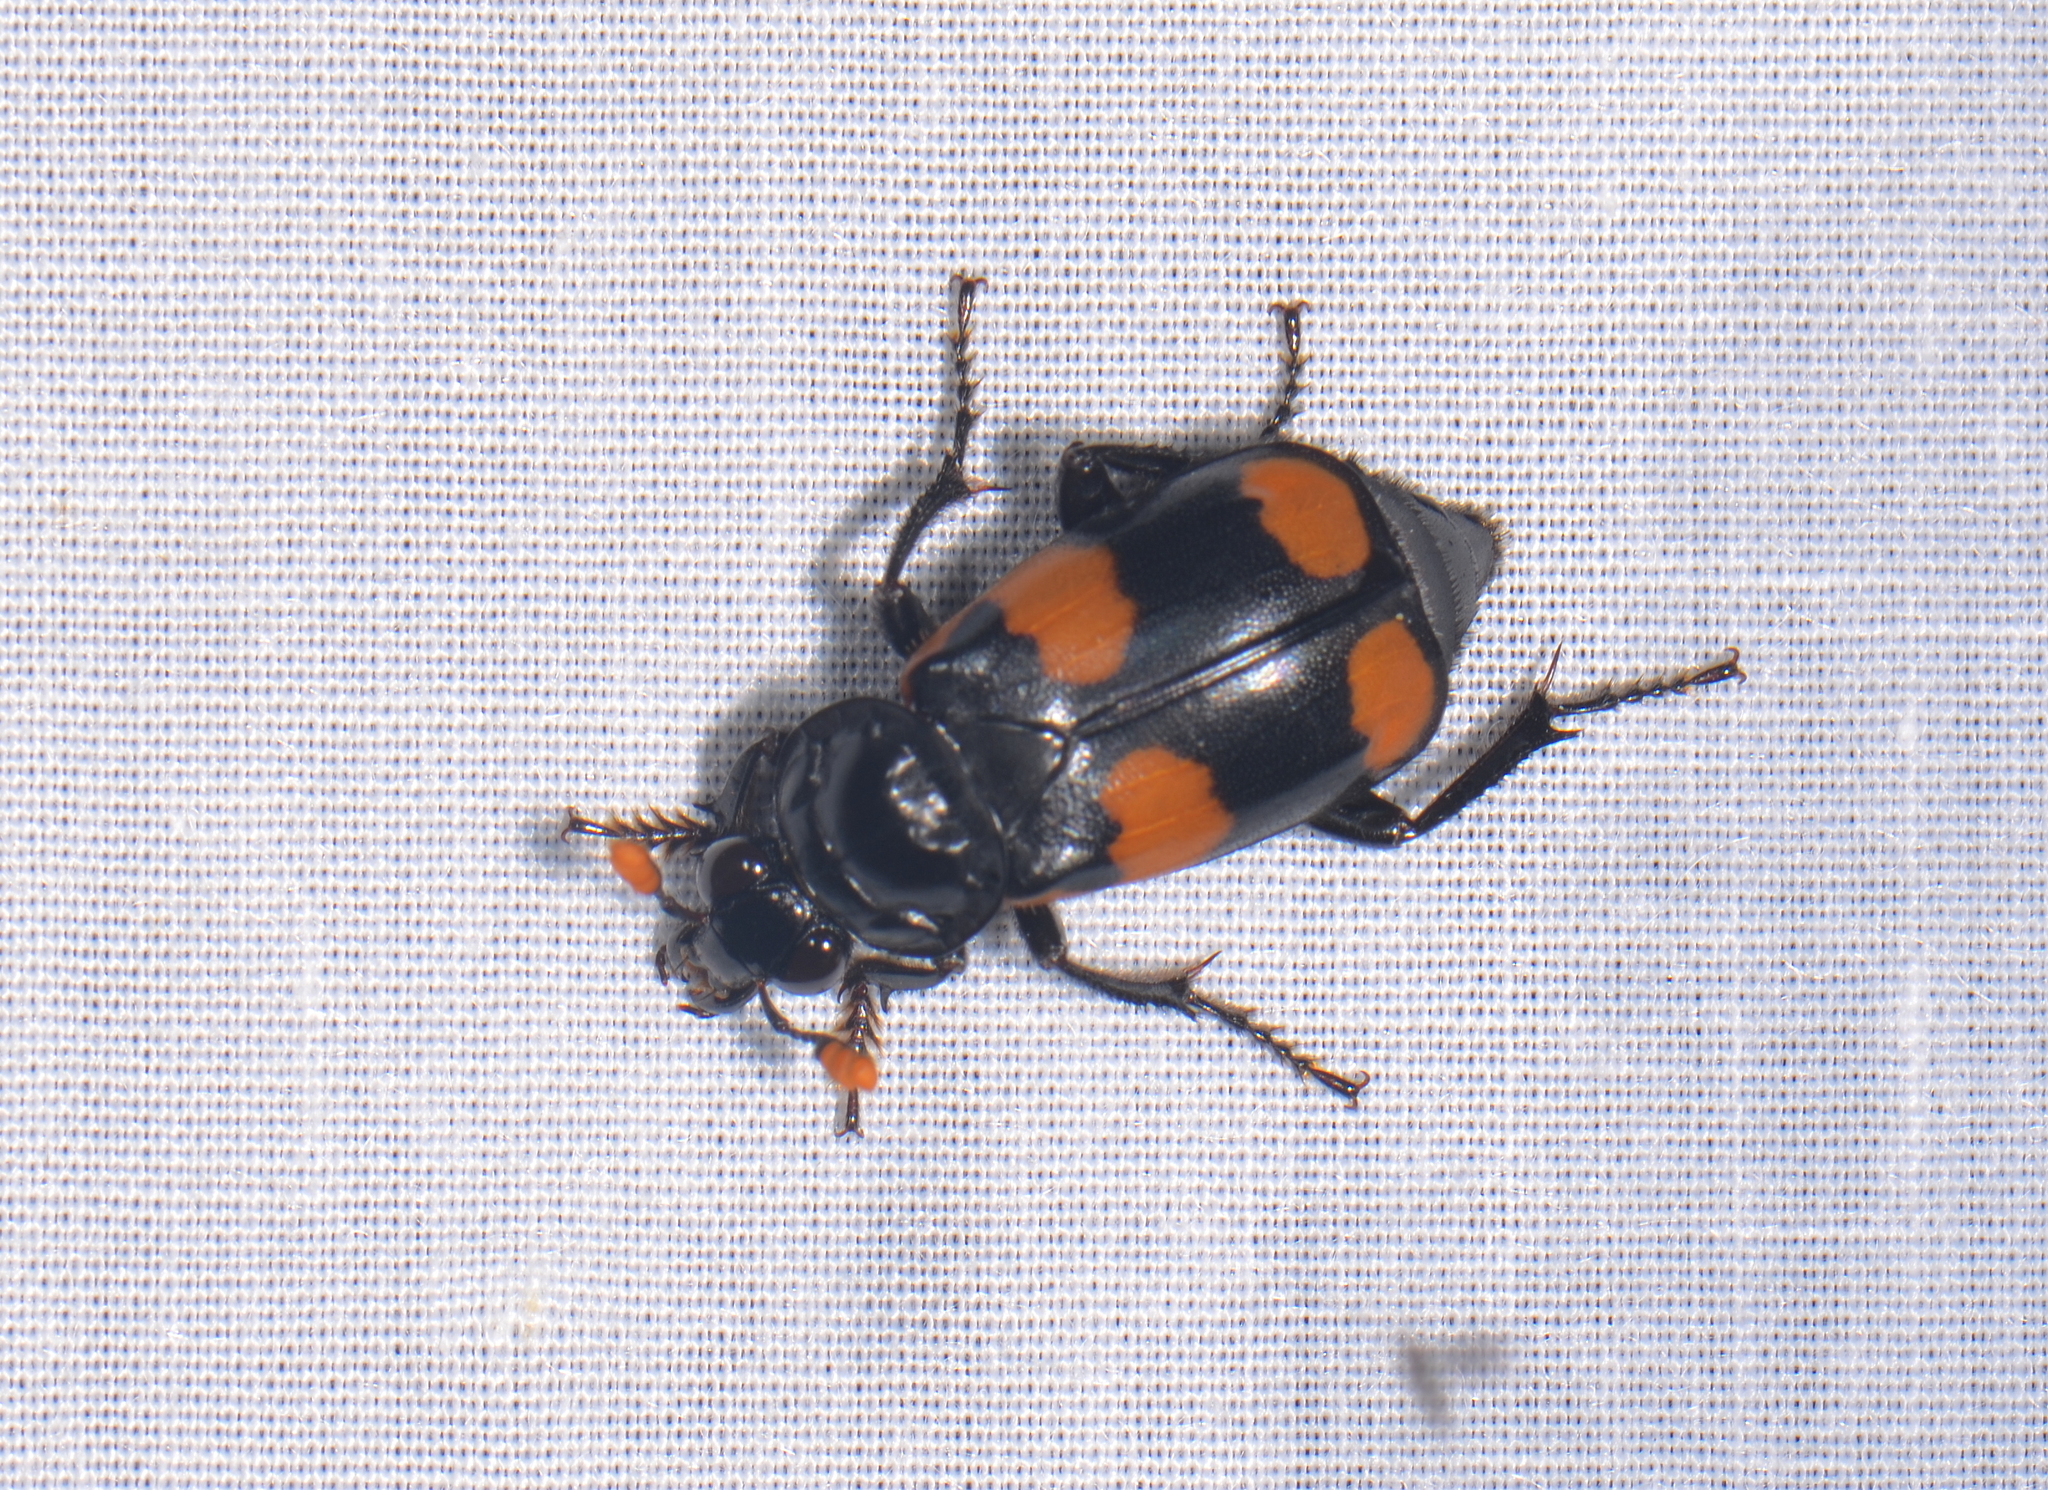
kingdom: Animalia
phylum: Arthropoda
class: Insecta
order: Coleoptera
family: Staphylinidae
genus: Nicrophorus
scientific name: Nicrophorus herscheli
